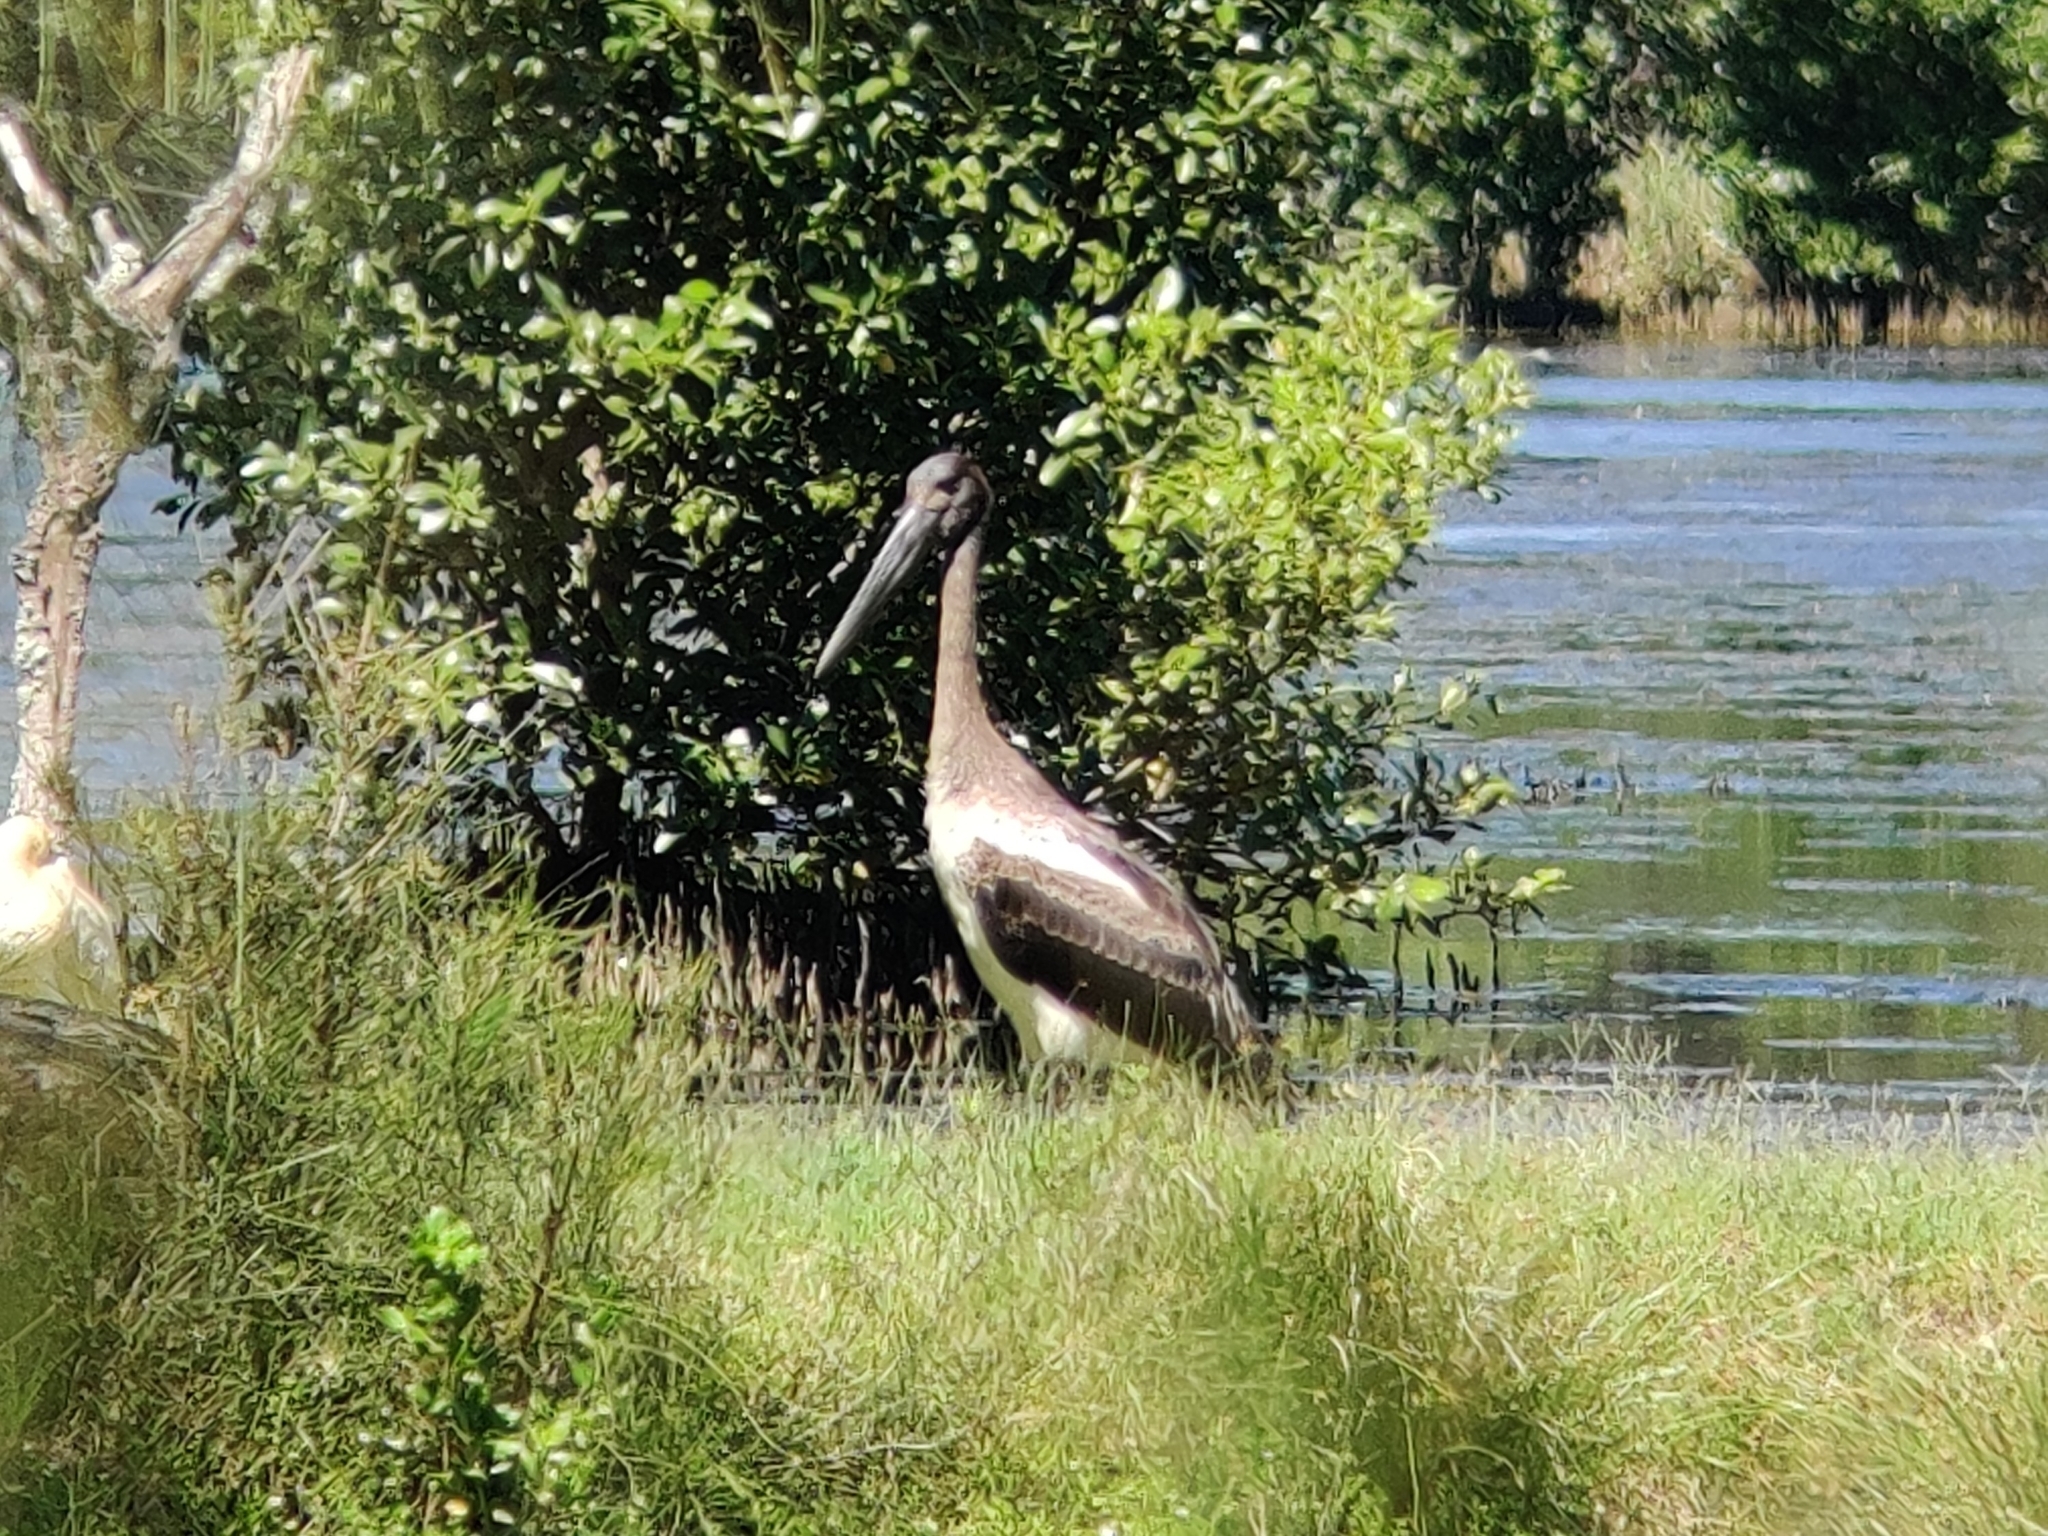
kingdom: Animalia
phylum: Chordata
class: Aves
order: Ciconiiformes
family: Ciconiidae
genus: Ephippiorhynchus
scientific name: Ephippiorhynchus asiaticus
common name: Black-necked stork
